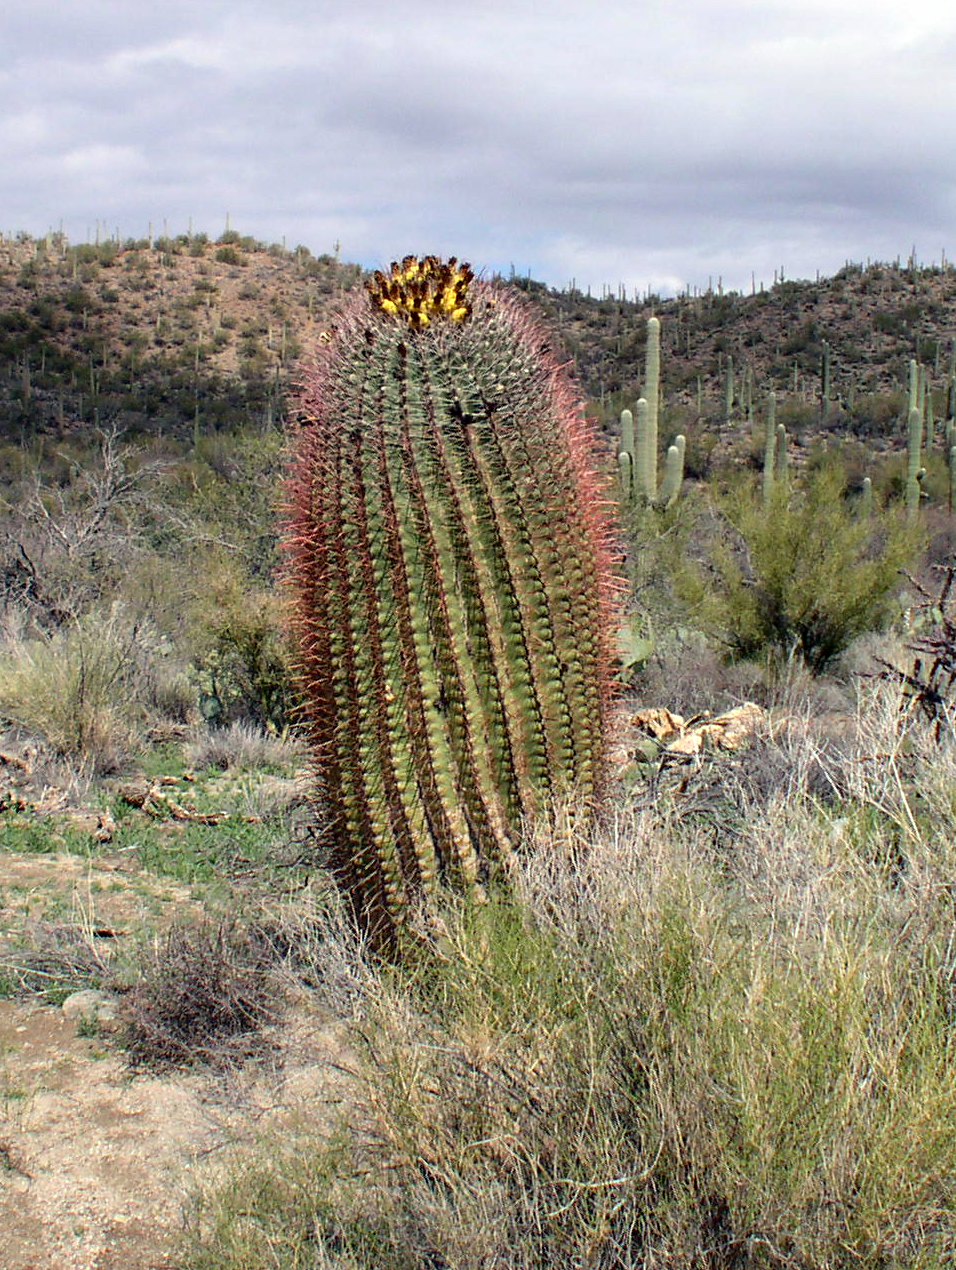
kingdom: Plantae
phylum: Tracheophyta
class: Magnoliopsida
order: Caryophyllales
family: Cactaceae
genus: Ferocactus
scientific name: Ferocactus wislizeni
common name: Candy barrel cactus
